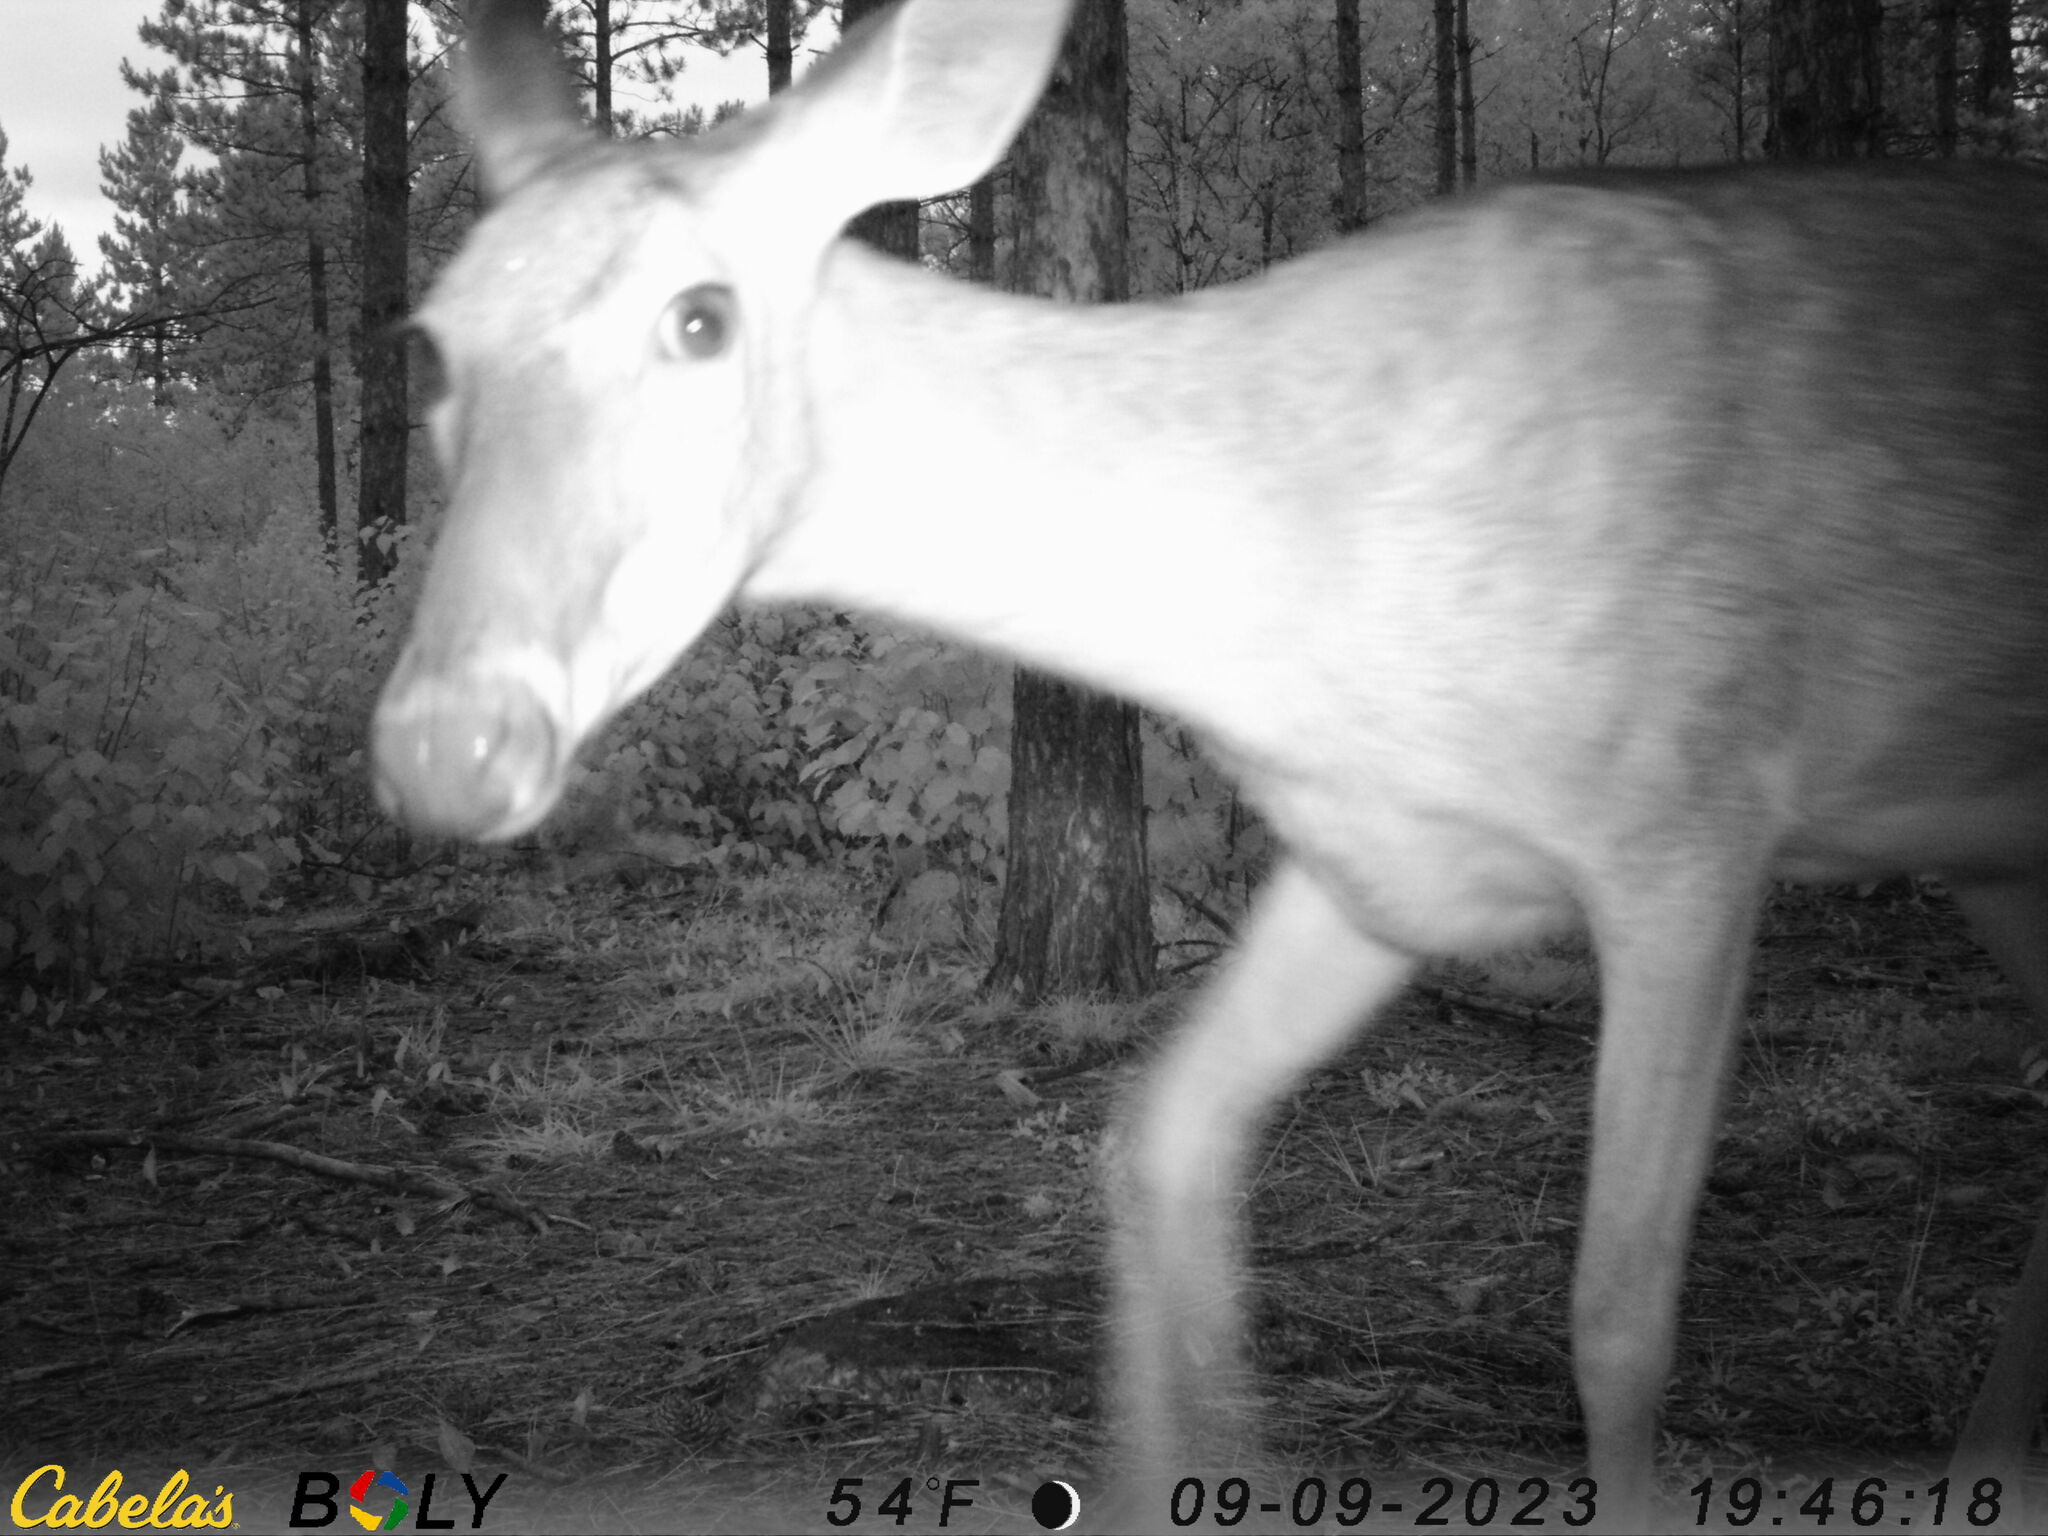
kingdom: Animalia
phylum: Chordata
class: Mammalia
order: Artiodactyla
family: Cervidae
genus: Odocoileus
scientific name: Odocoileus virginianus
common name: White-tailed deer
